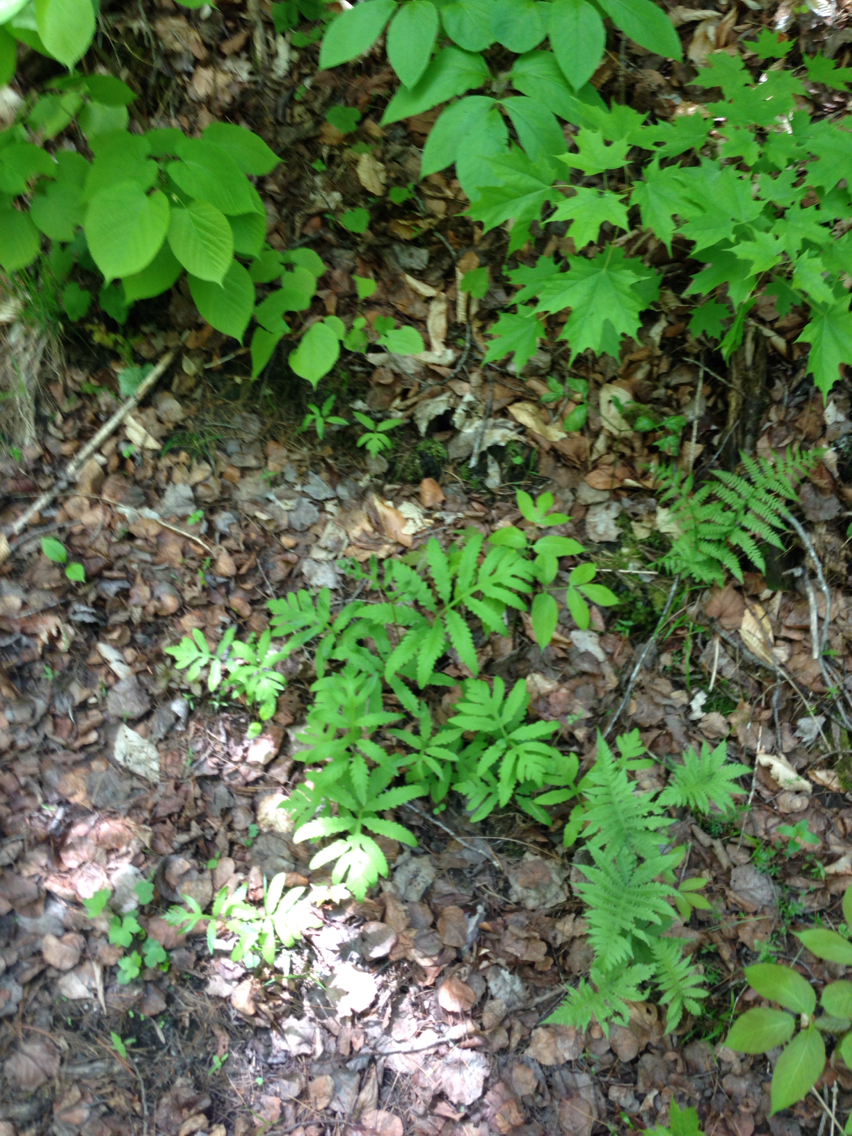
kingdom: Plantae
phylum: Tracheophyta
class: Polypodiopsida
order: Polypodiales
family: Onocleaceae
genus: Onoclea
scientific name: Onoclea sensibilis
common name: Sensitive fern
